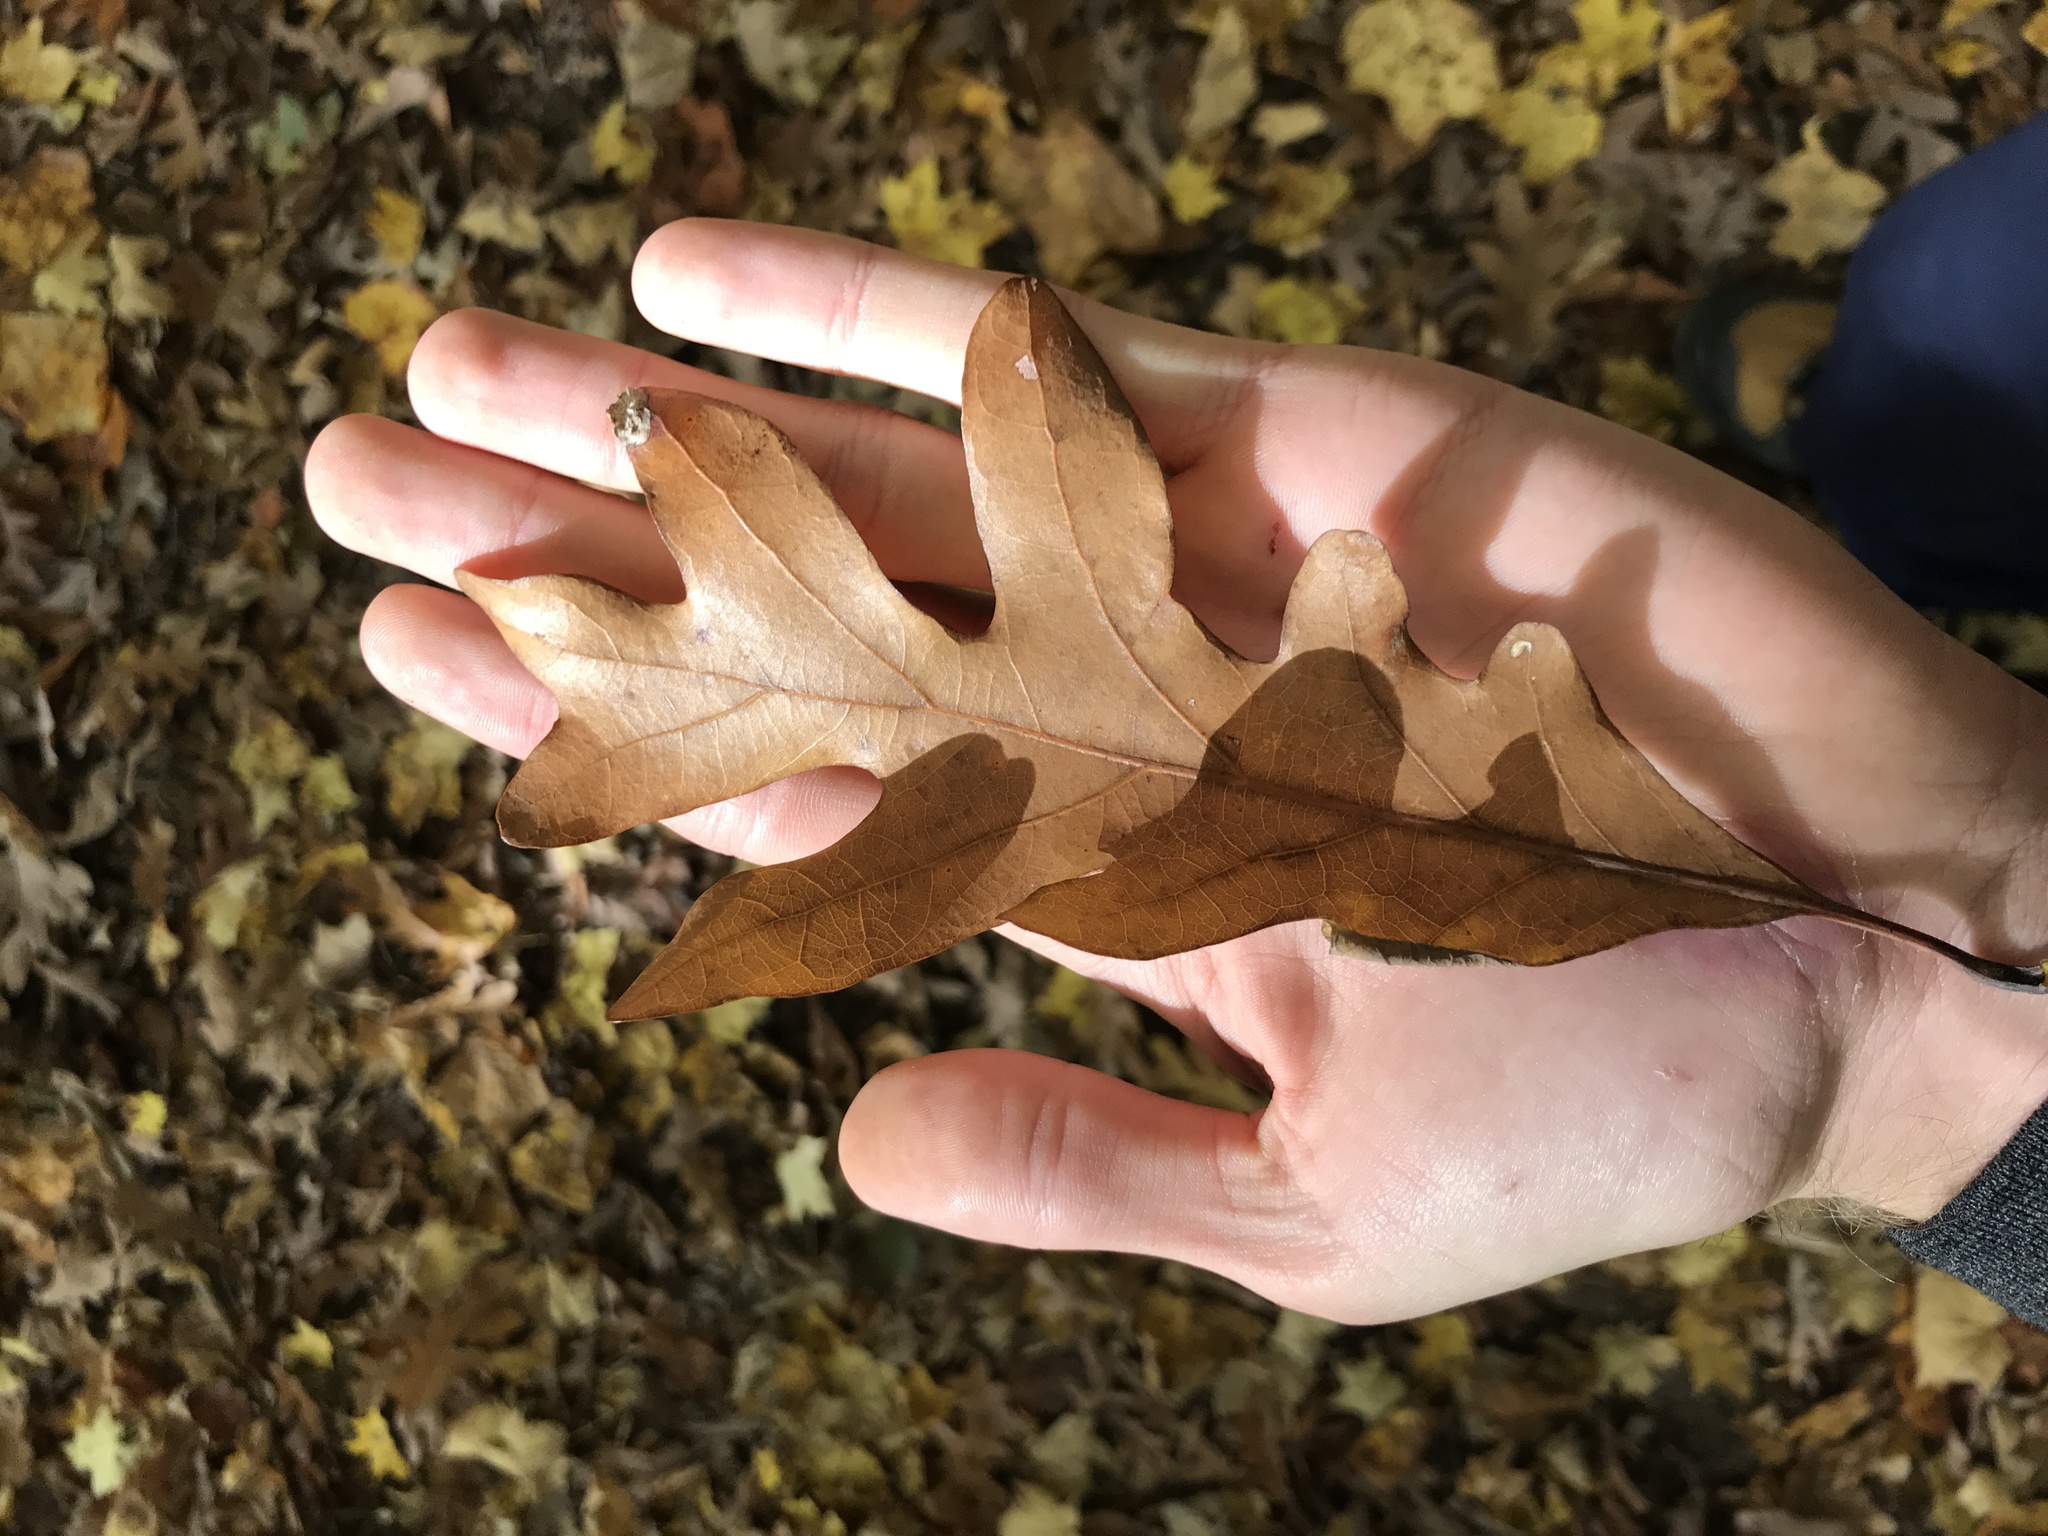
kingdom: Plantae
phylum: Tracheophyta
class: Magnoliopsida
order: Fagales
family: Fagaceae
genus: Quercus
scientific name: Quercus alba
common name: White oak
